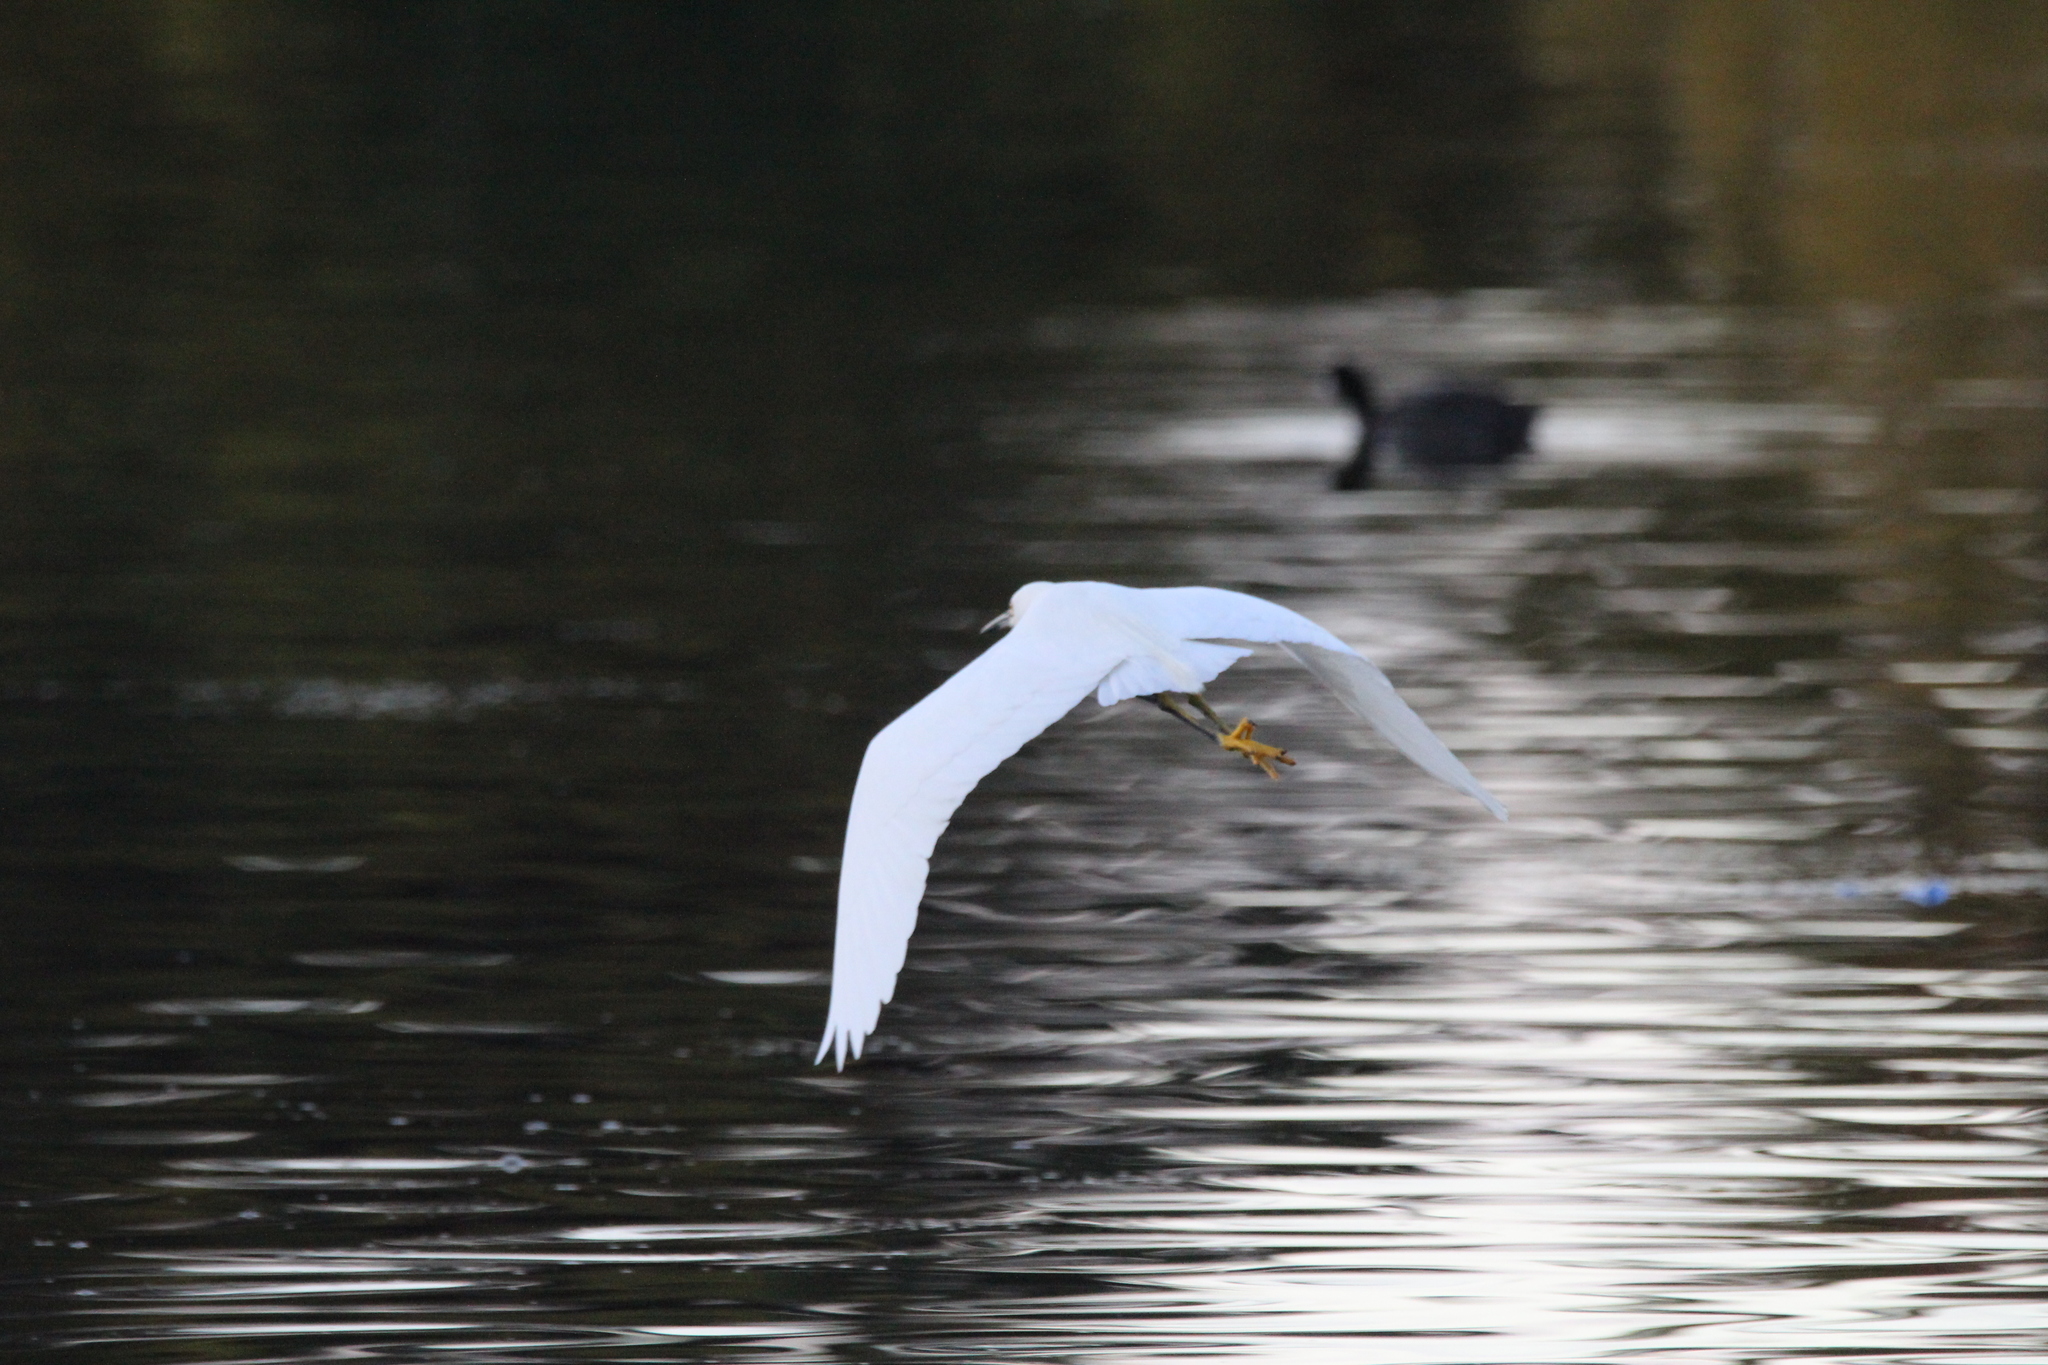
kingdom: Animalia
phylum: Chordata
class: Aves
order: Pelecaniformes
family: Ardeidae
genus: Egretta
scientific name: Egretta thula
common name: Snowy egret
